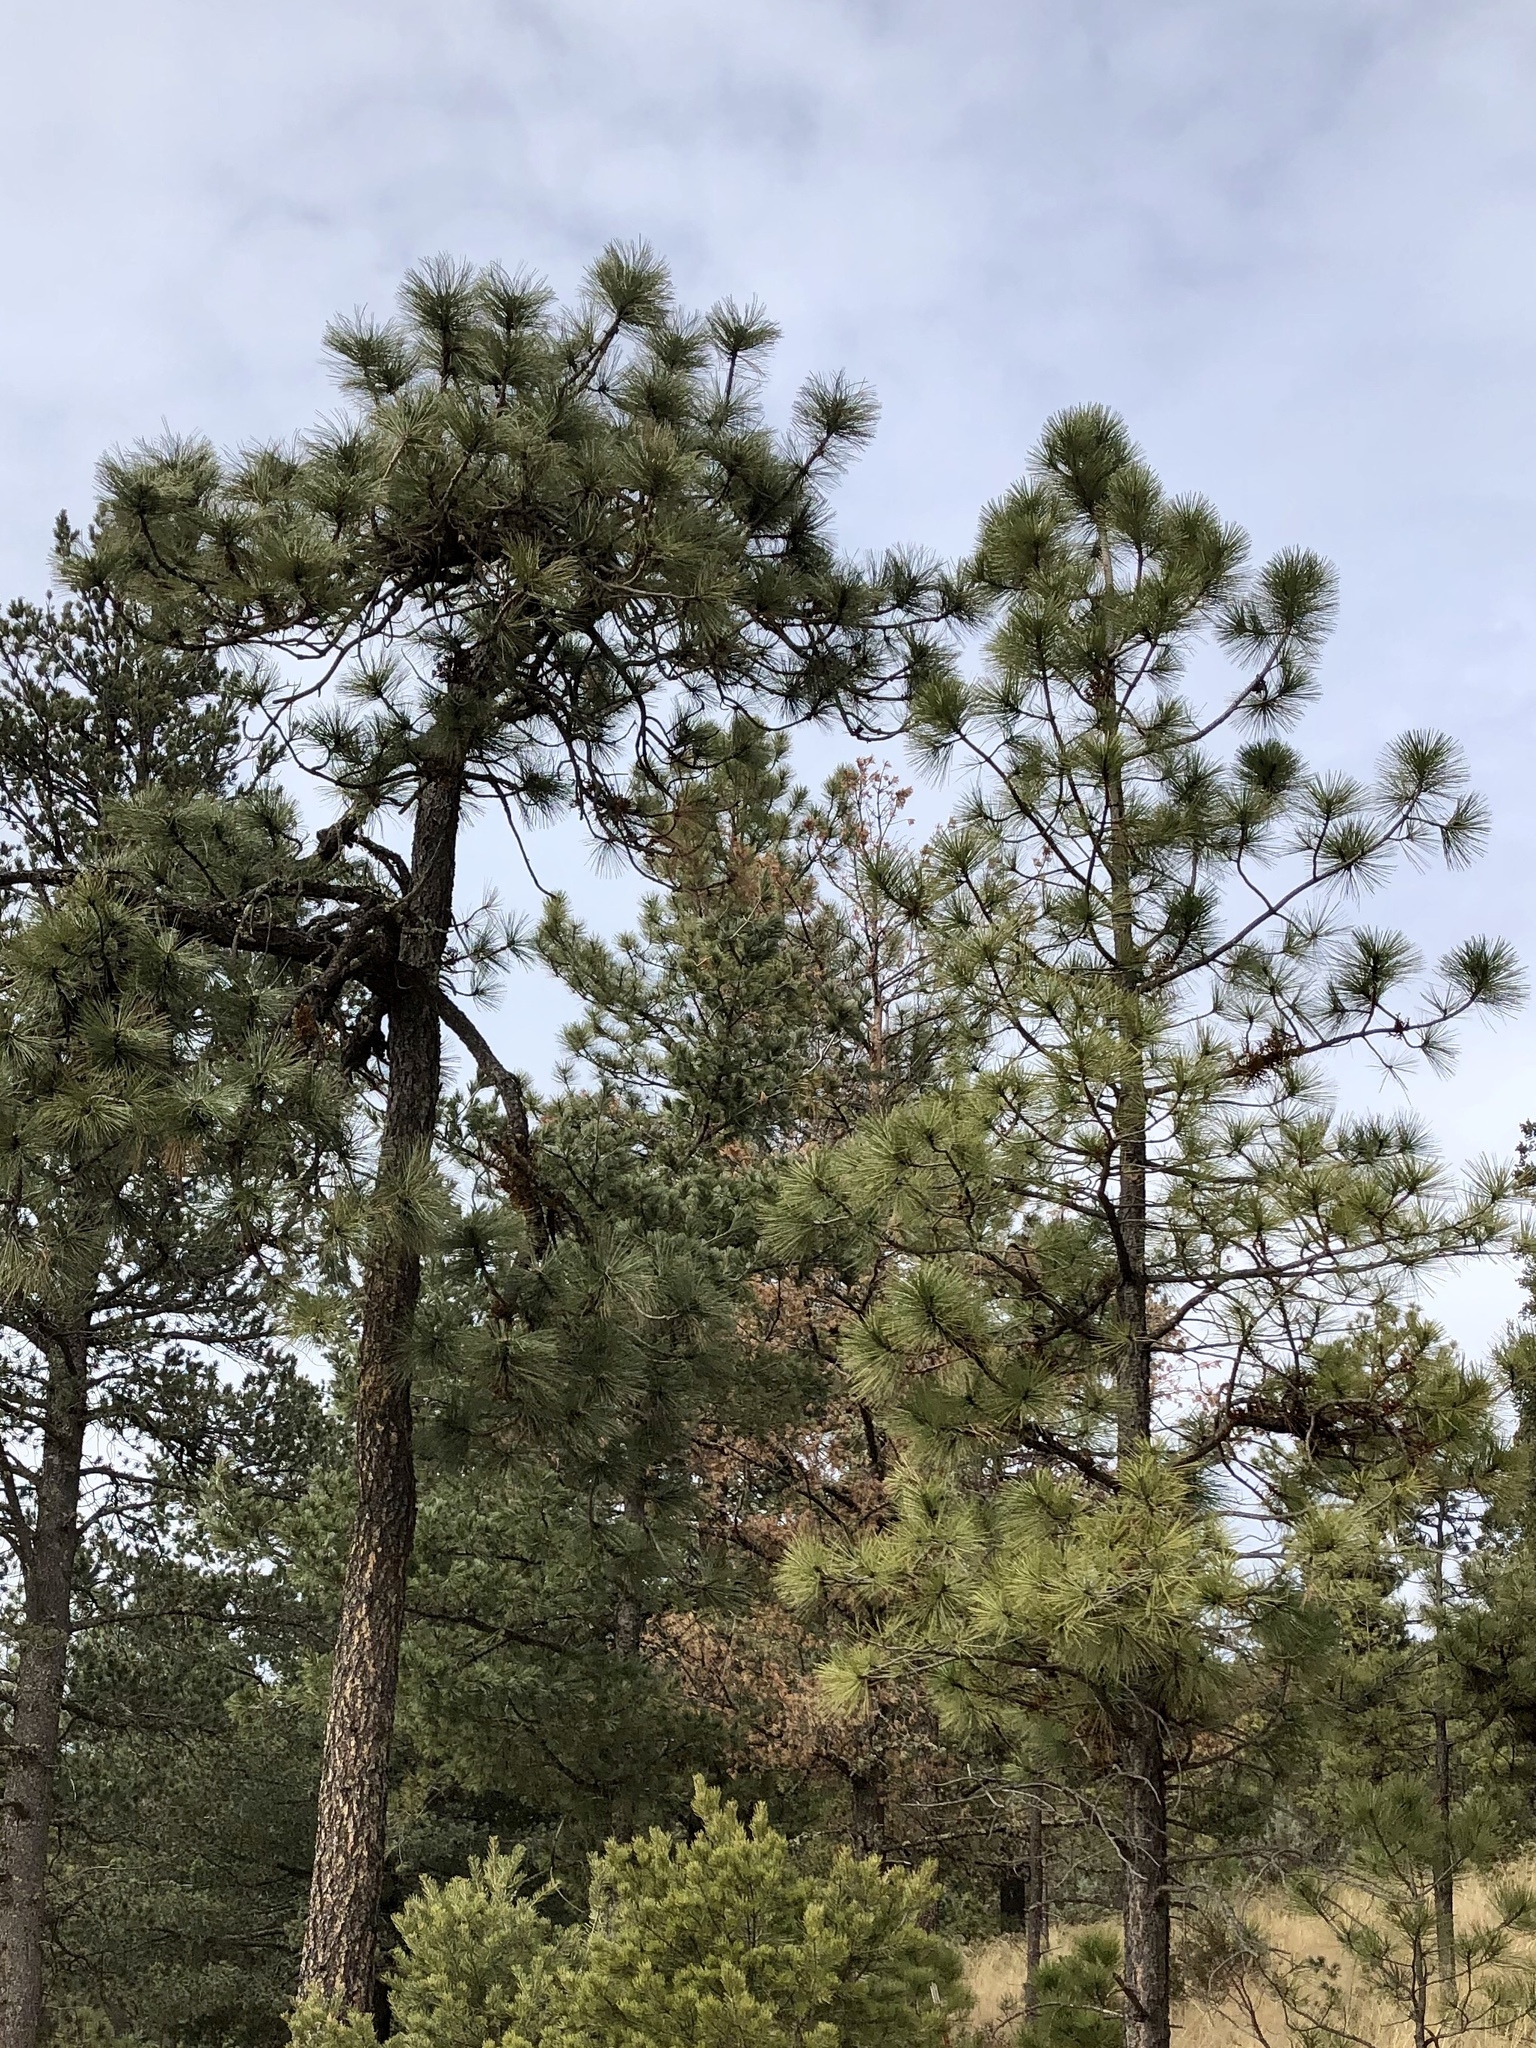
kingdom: Plantae
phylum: Tracheophyta
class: Pinopsida
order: Pinales
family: Pinaceae
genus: Pinus
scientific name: Pinus ponderosa
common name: Western yellow-pine
